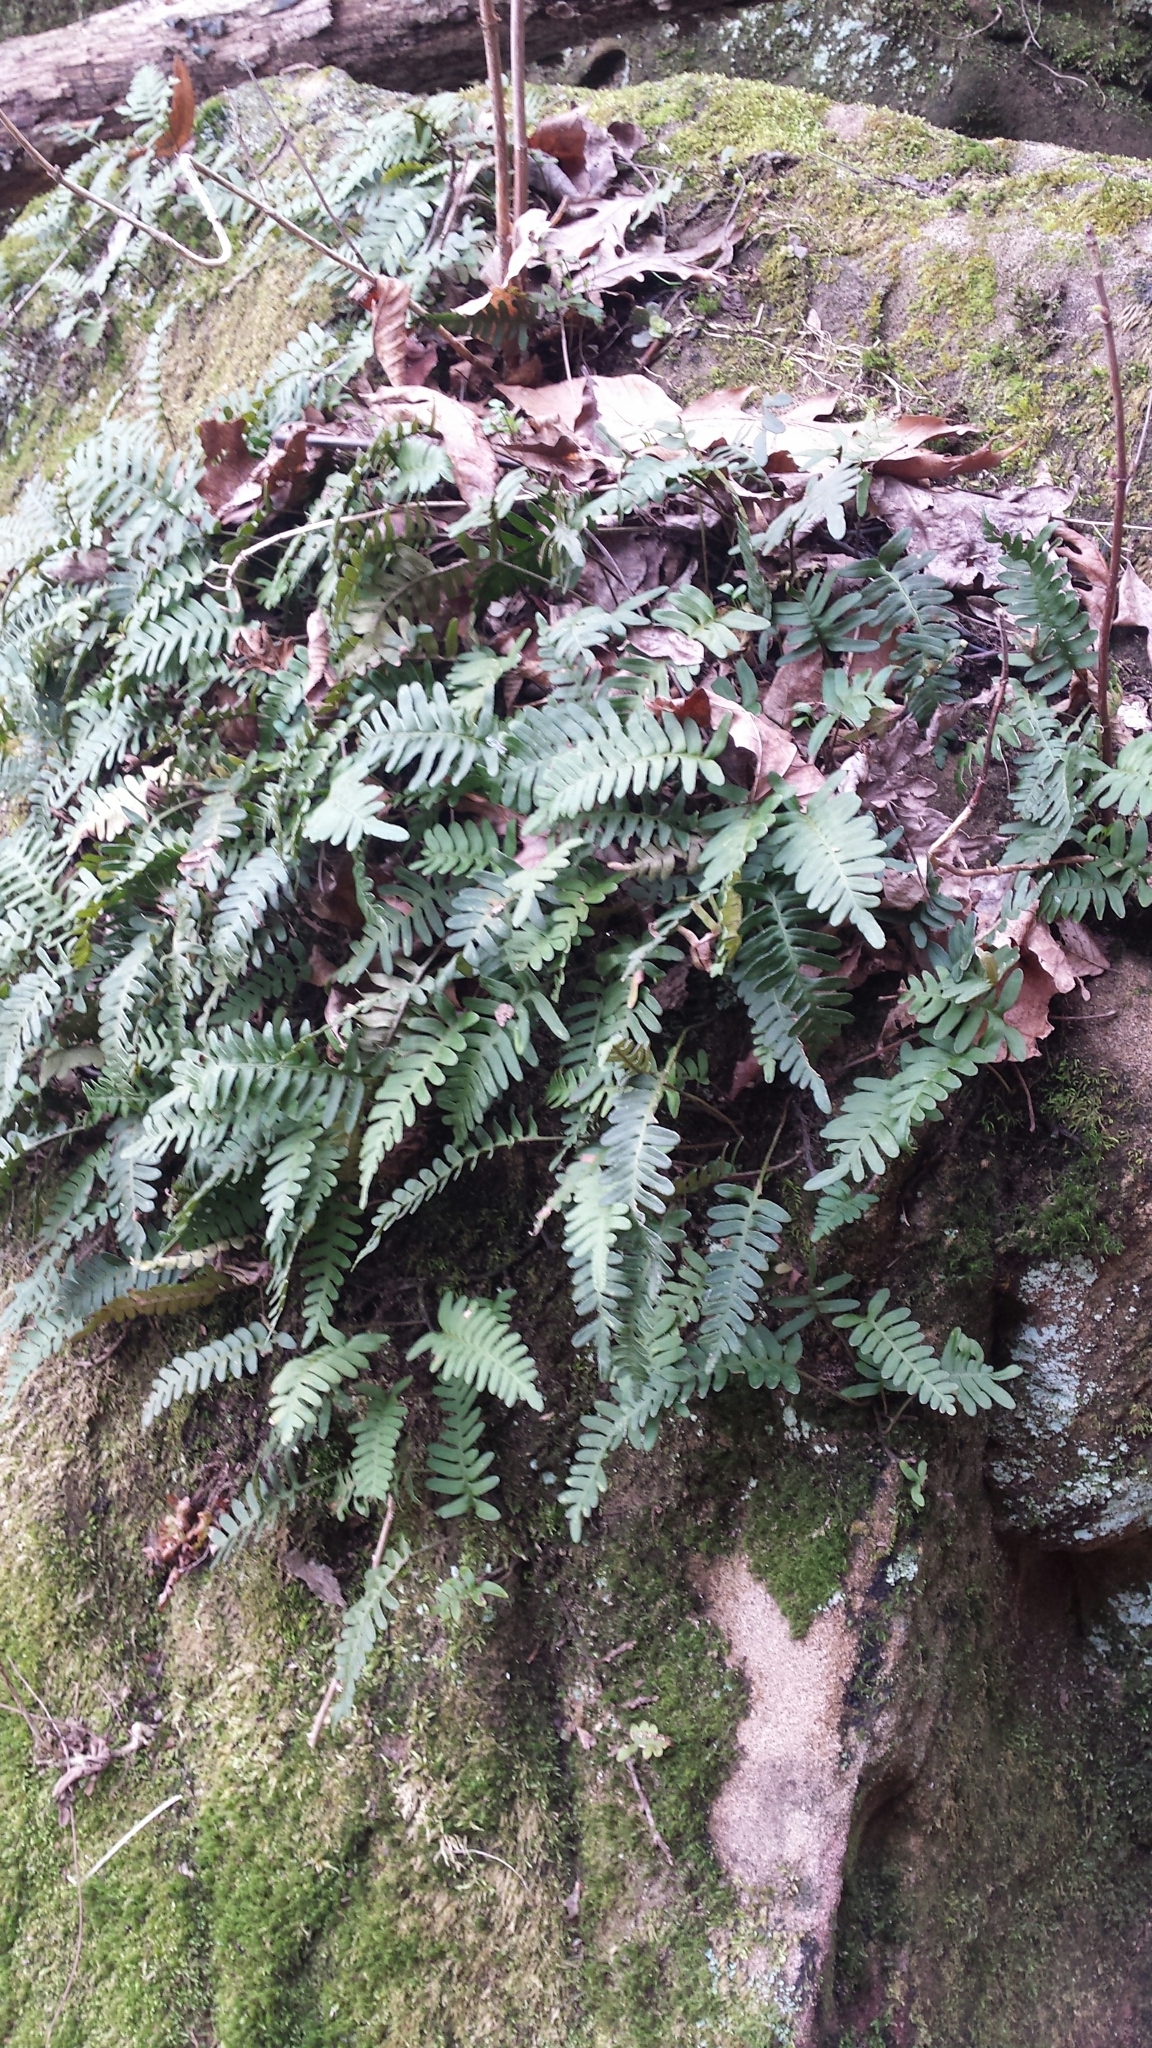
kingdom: Plantae
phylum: Tracheophyta
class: Polypodiopsida
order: Polypodiales
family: Polypodiaceae
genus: Pleopeltis
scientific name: Pleopeltis michauxiana
